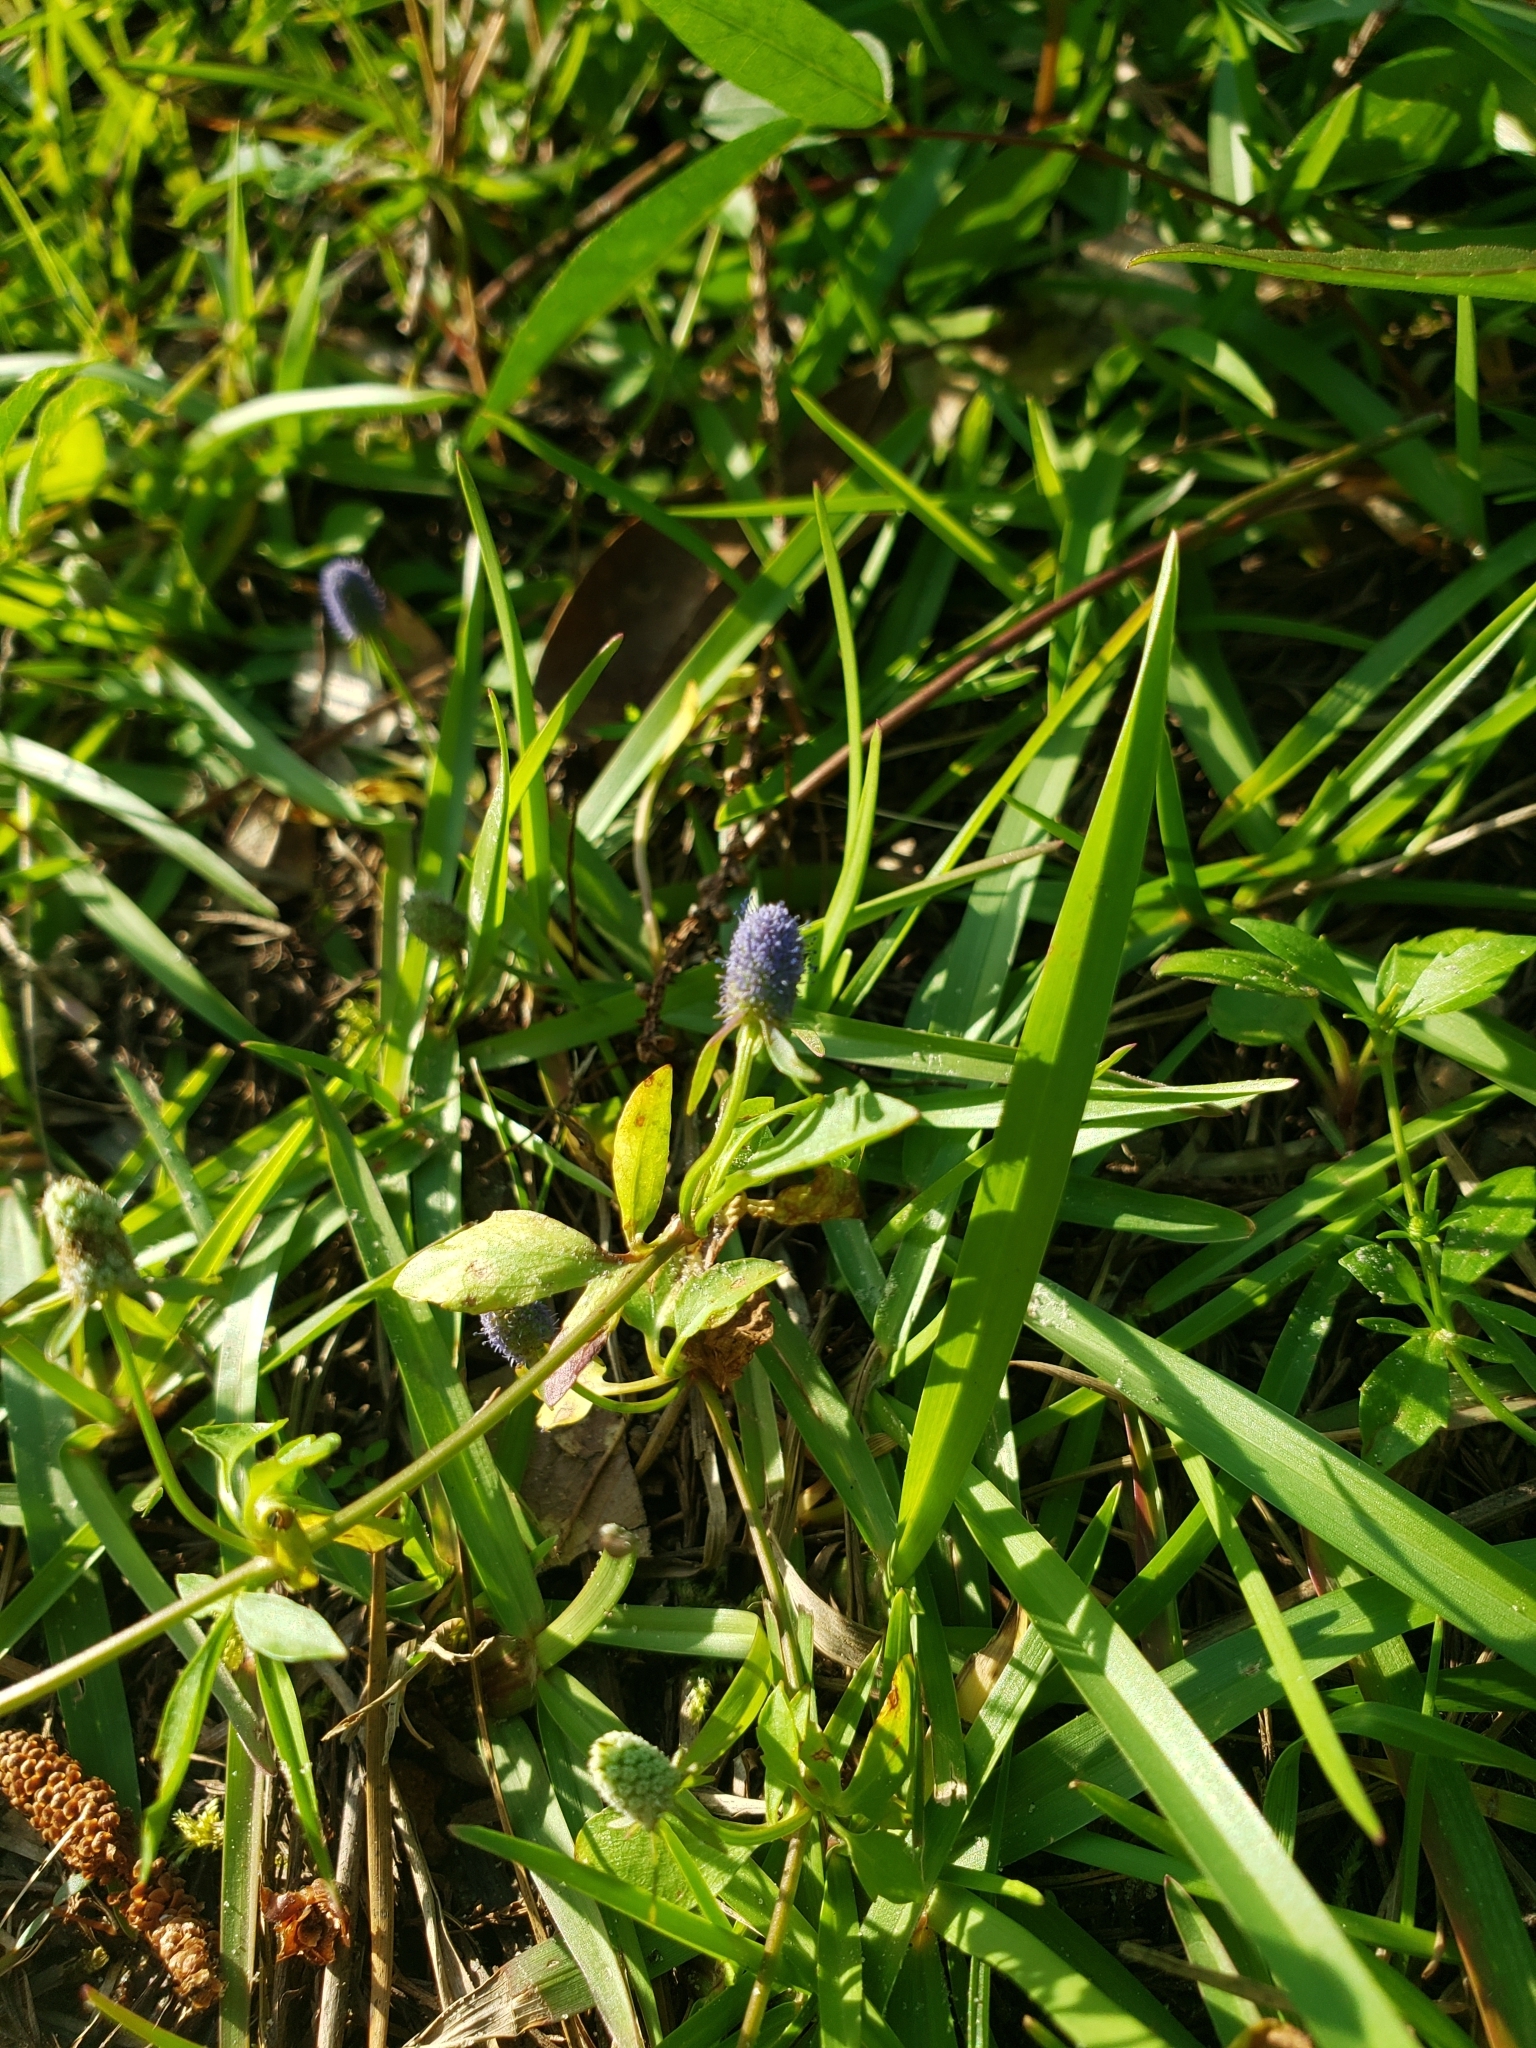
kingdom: Plantae
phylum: Tracheophyta
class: Magnoliopsida
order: Apiales
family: Apiaceae
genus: Eryngium
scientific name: Eryngium prostratum
